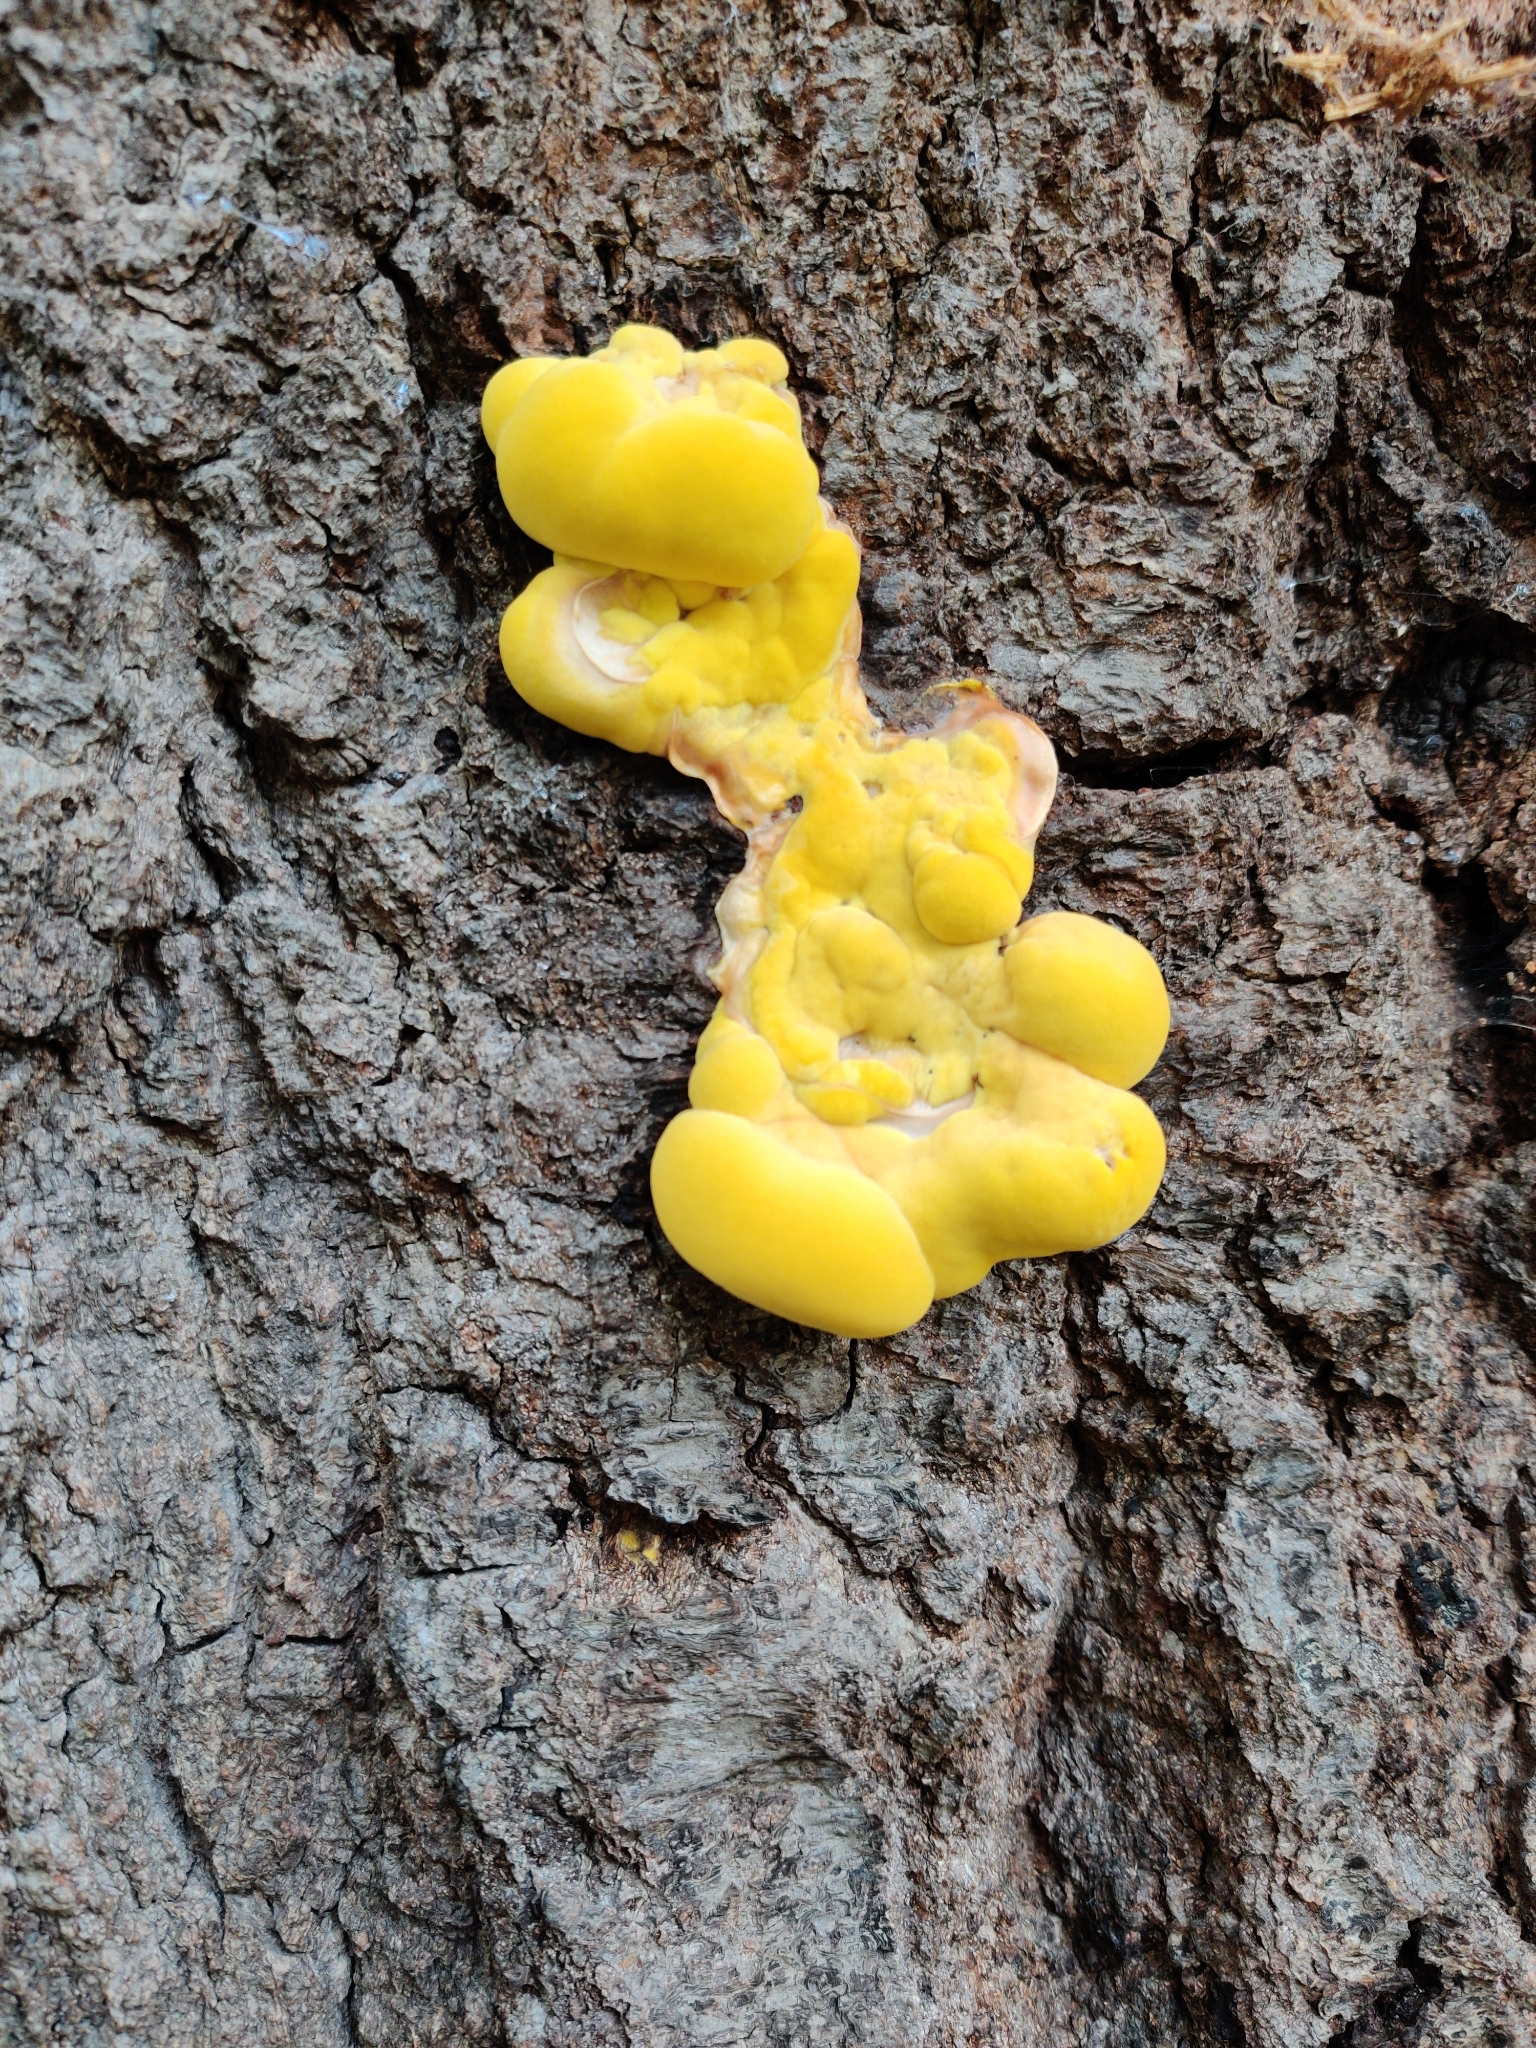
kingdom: Fungi
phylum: Basidiomycota
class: Agaricomycetes
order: Polyporales
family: Laetiporaceae
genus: Laetiporus
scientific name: Laetiporus sulphureus
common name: Chicken of the woods
